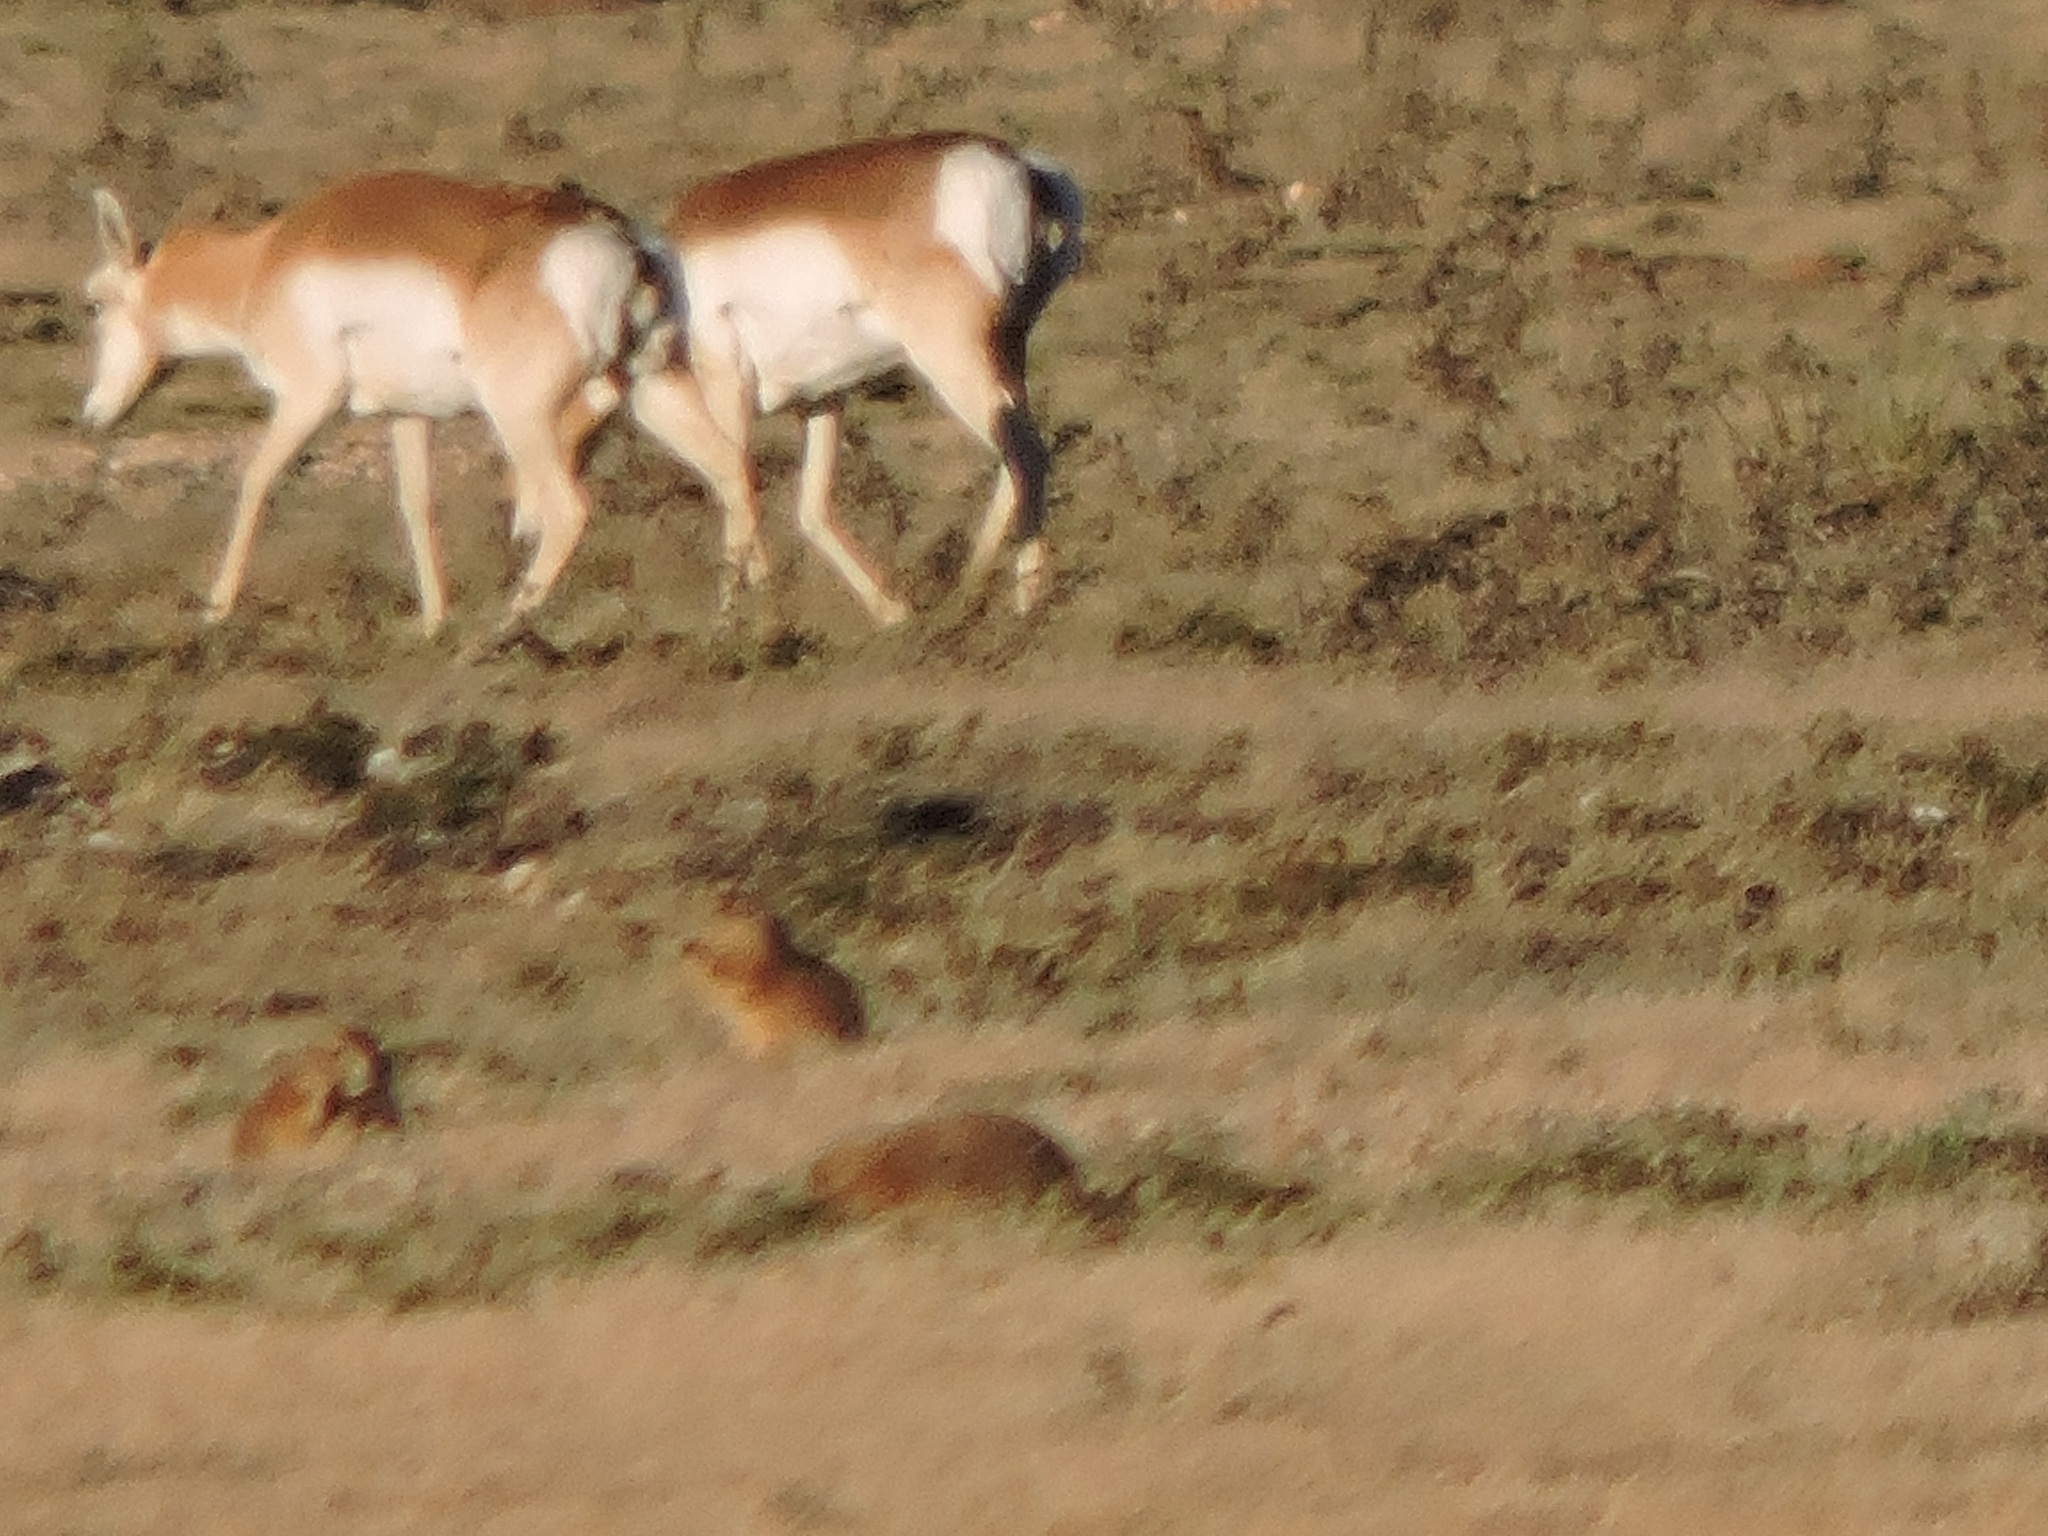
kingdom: Animalia
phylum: Chordata
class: Mammalia
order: Rodentia
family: Sciuridae
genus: Cynomys
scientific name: Cynomys ludovicianus
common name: Black-tailed prairie dog
